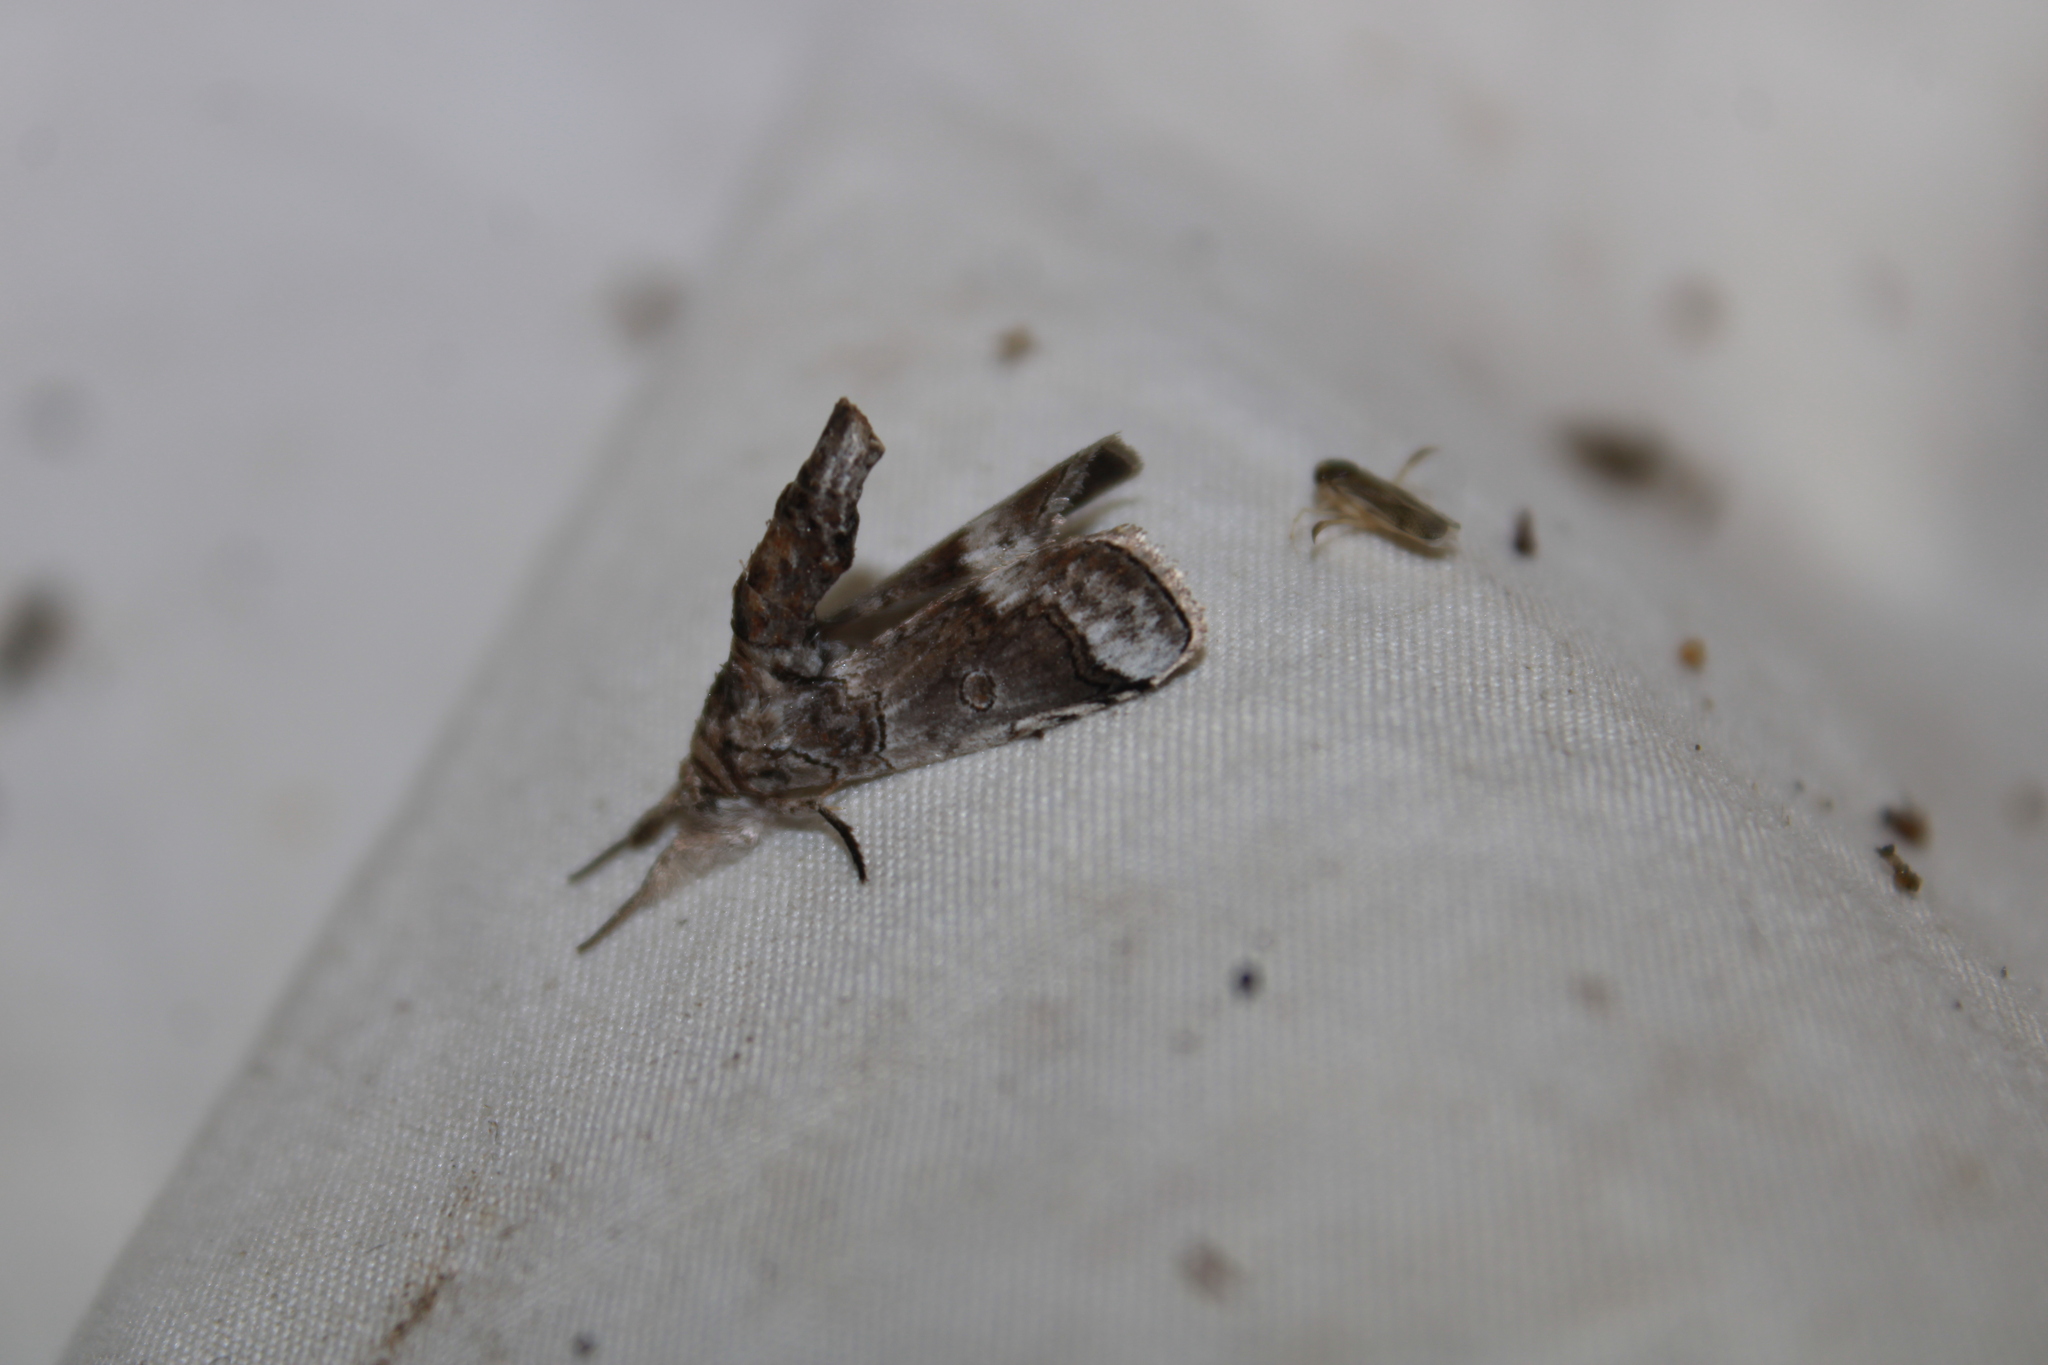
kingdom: Animalia
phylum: Arthropoda
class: Insecta
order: Lepidoptera
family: Nolidae
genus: Motya
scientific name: Motya
